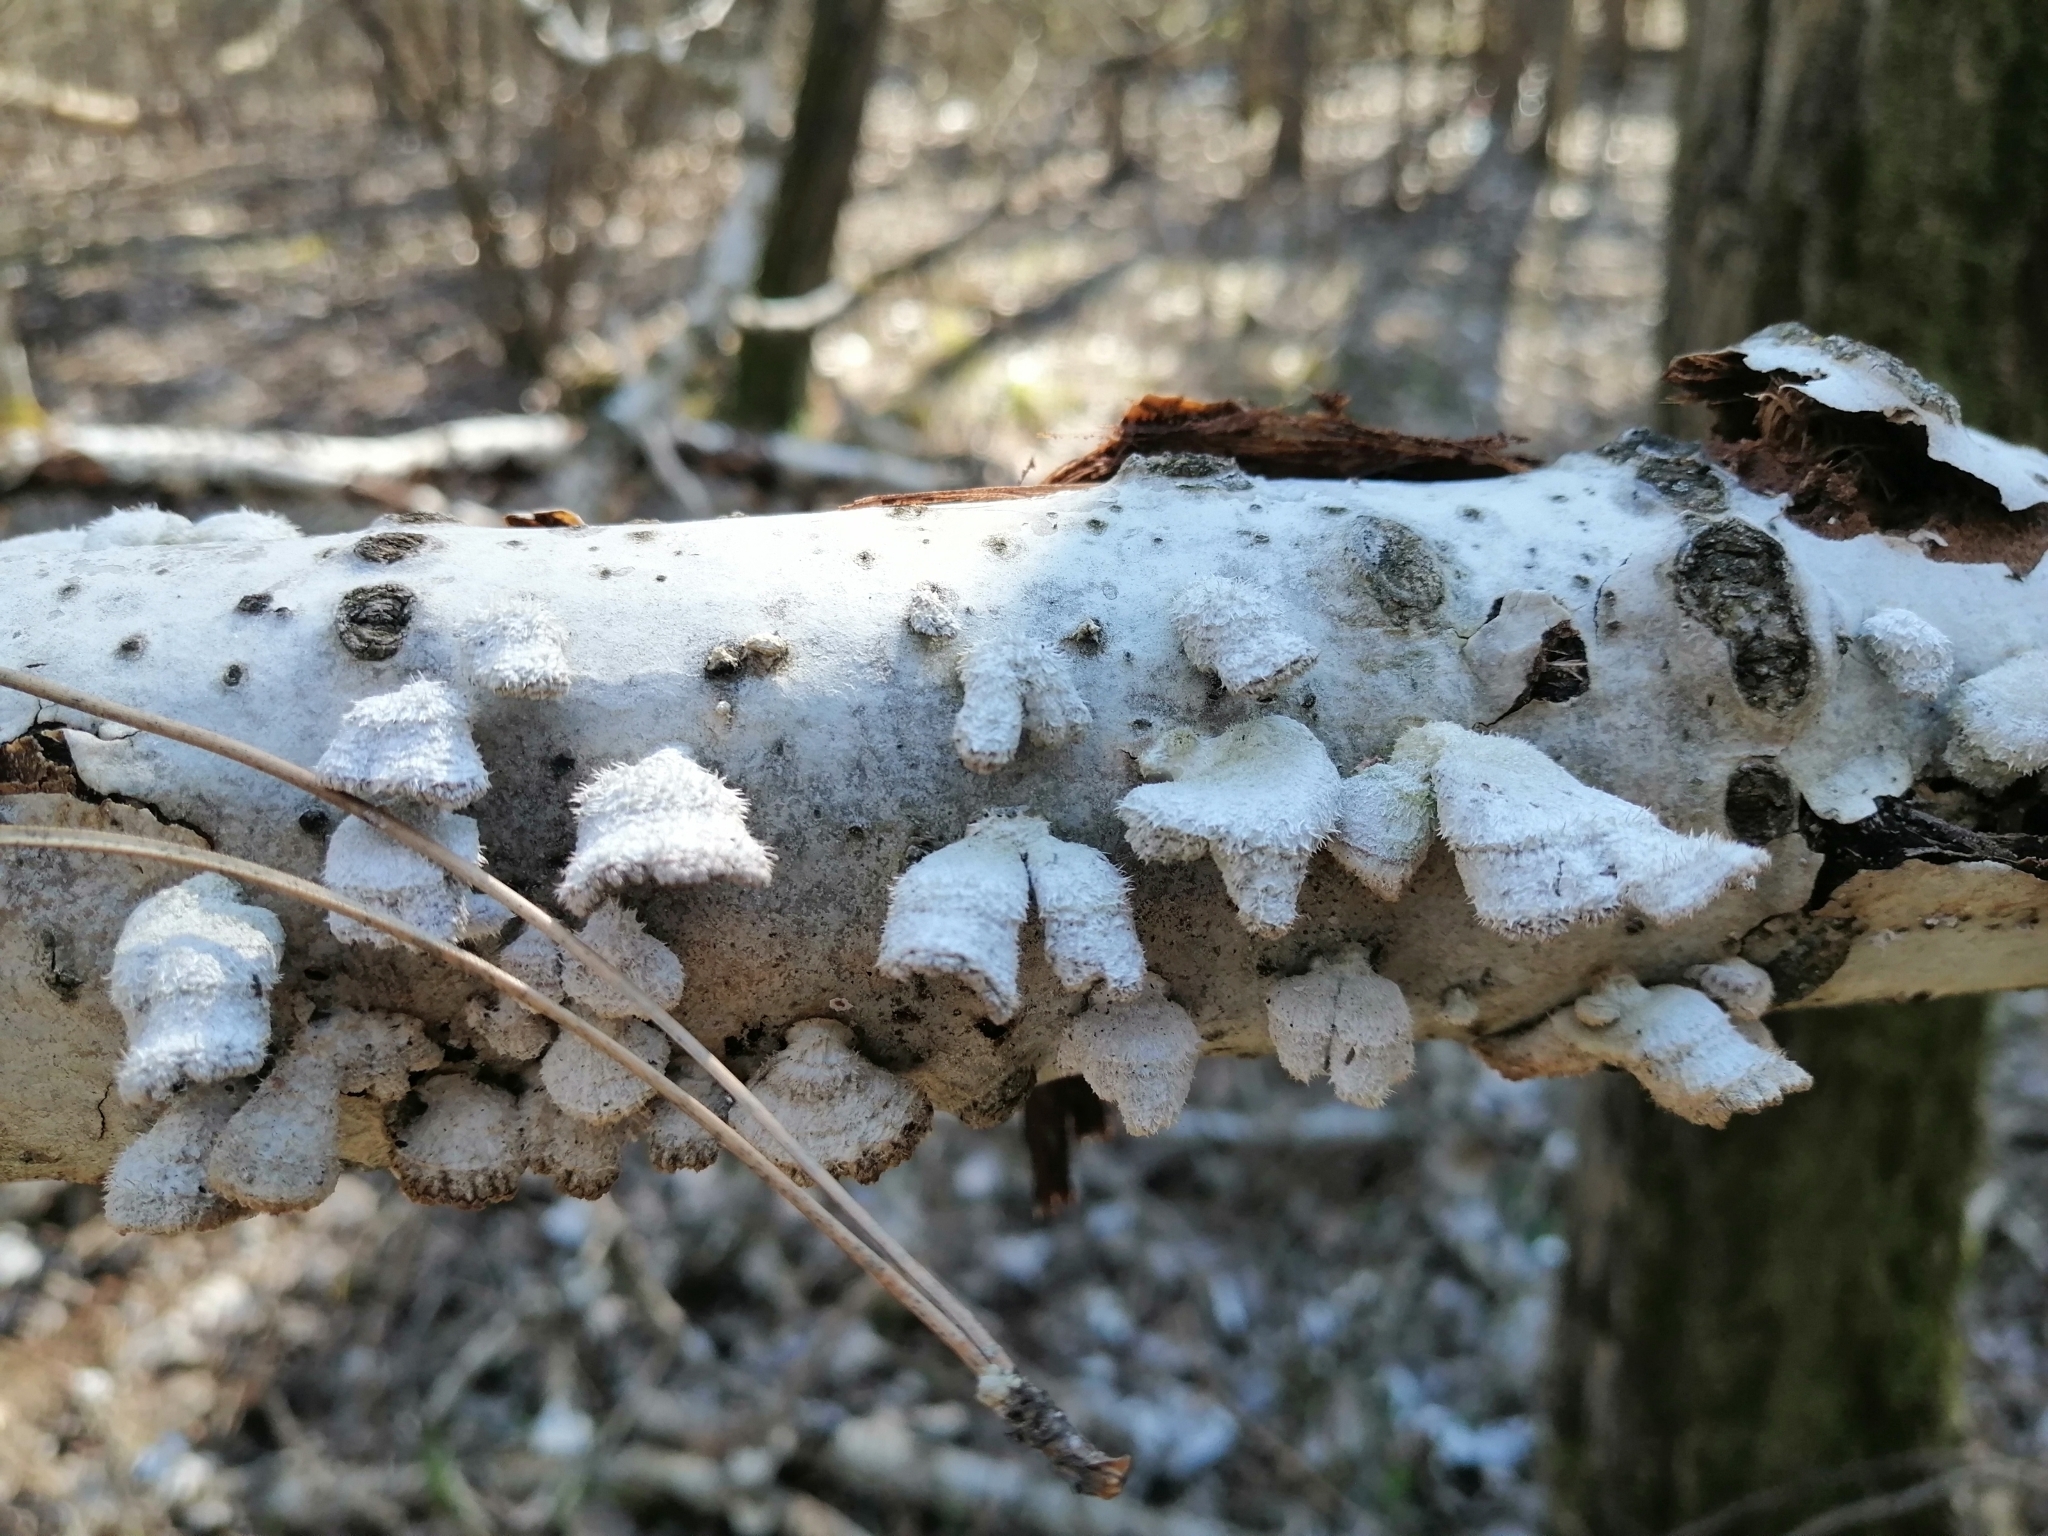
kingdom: Fungi
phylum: Basidiomycota
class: Agaricomycetes
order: Agaricales
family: Schizophyllaceae
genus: Schizophyllum
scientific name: Schizophyllum commune
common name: Common porecrust
